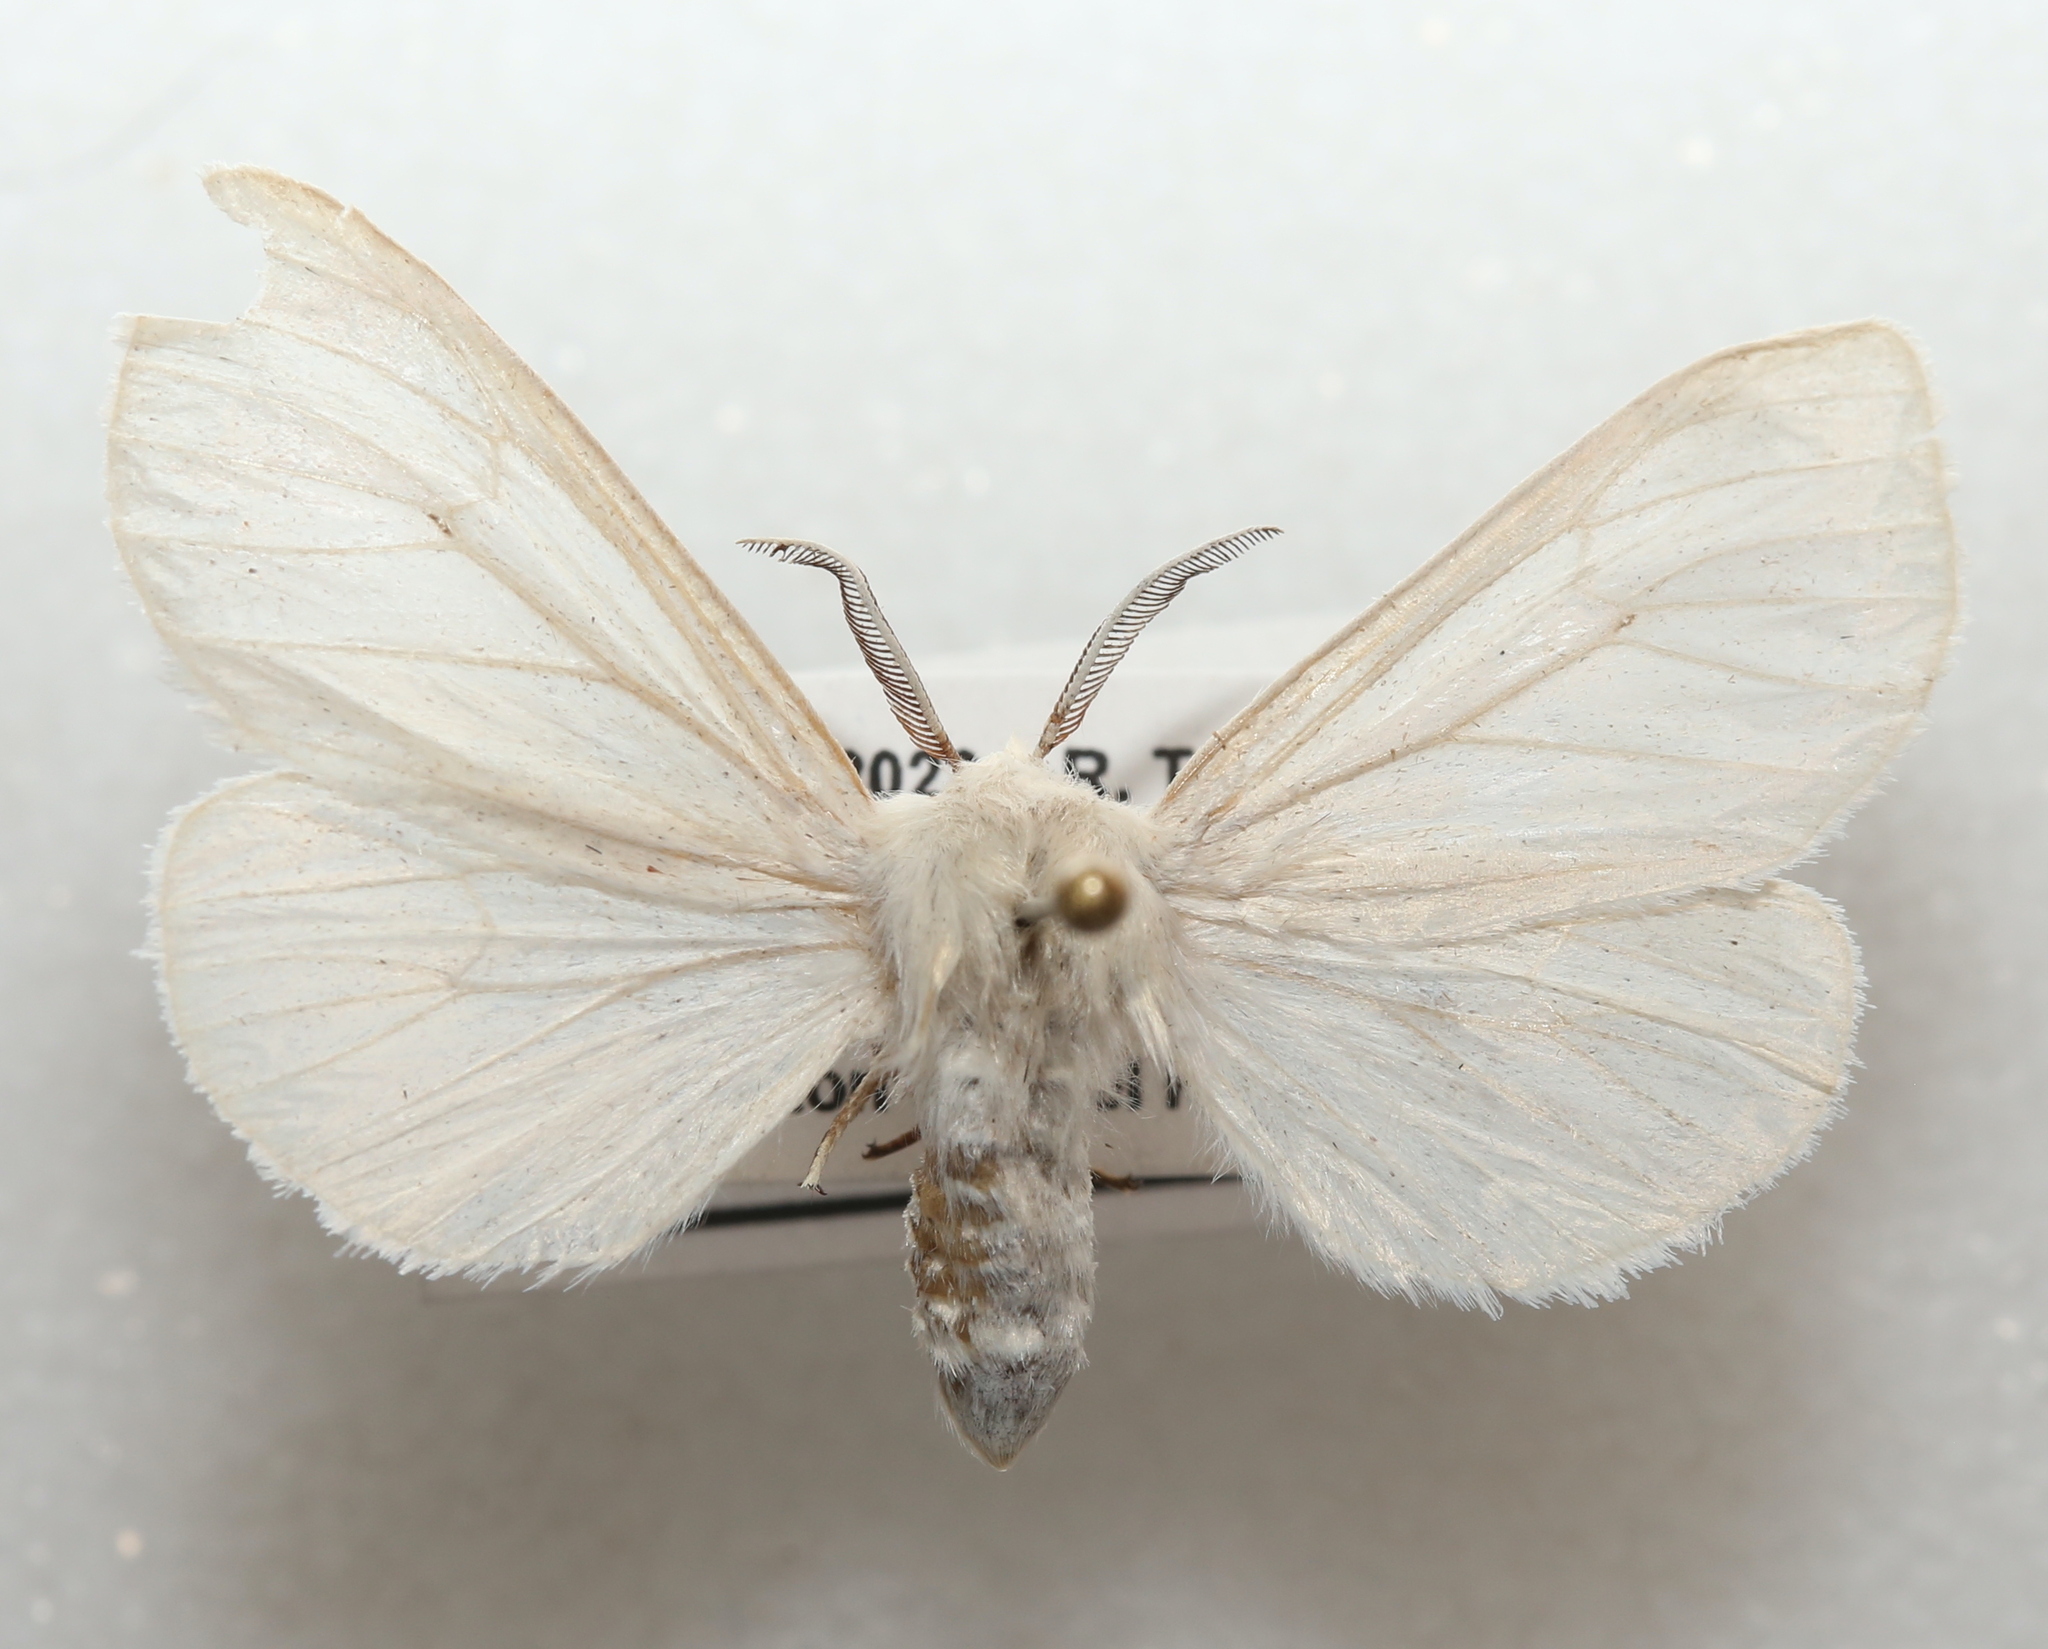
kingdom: Animalia
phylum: Arthropoda
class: Insecta
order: Lepidoptera
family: Erebidae
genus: Spilosoma
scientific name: Spilosoma congrua
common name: Agreeable tiger moth
